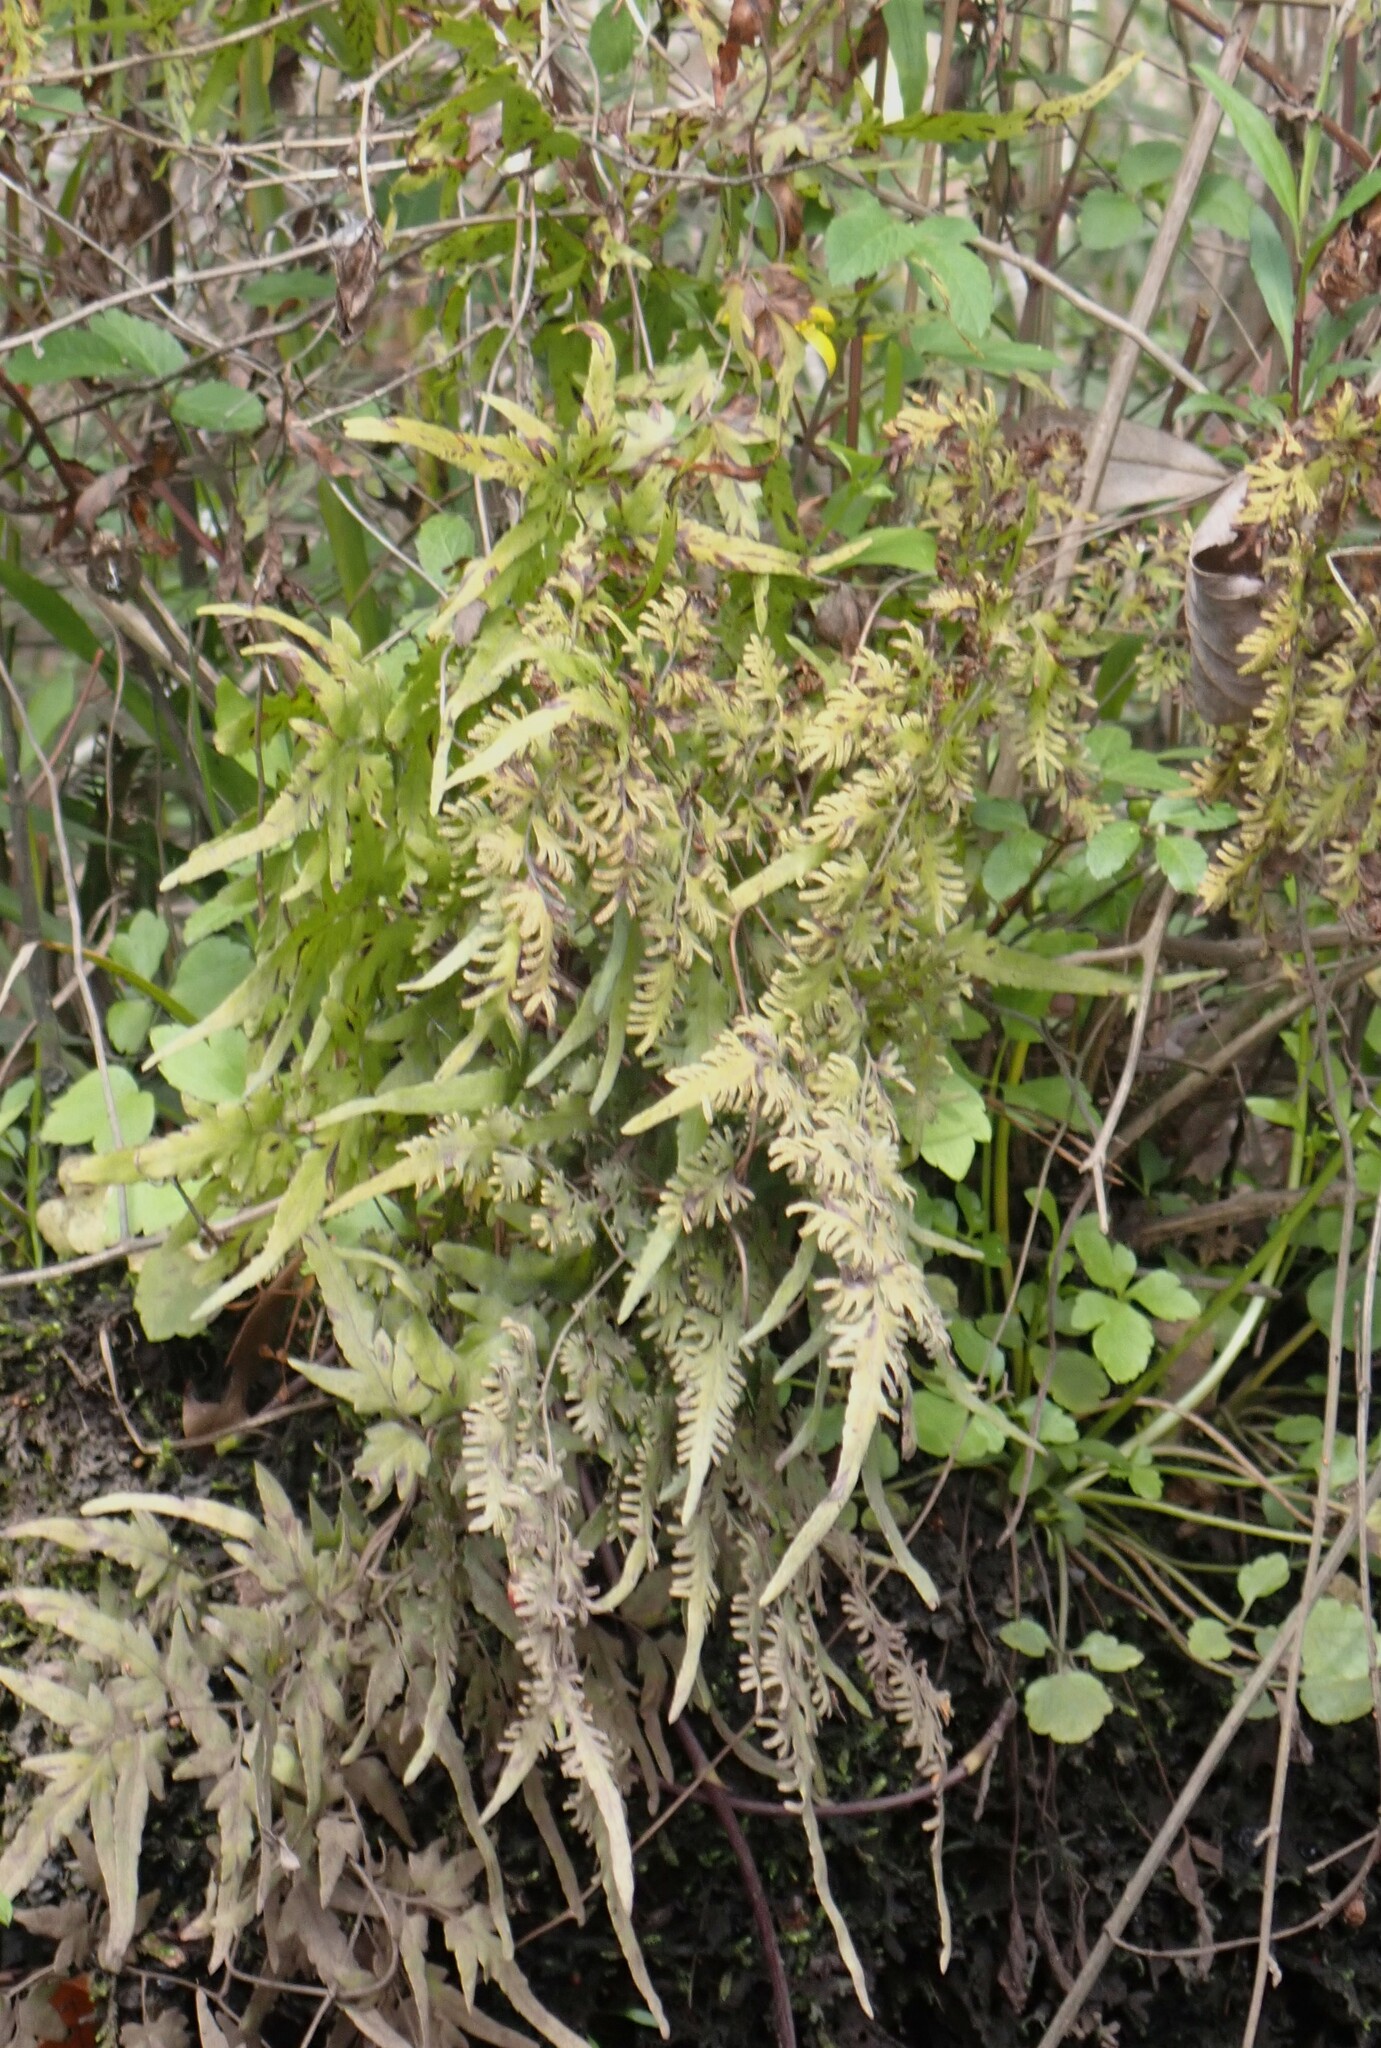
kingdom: Plantae
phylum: Tracheophyta
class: Polypodiopsida
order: Schizaeales
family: Lygodiaceae
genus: Lygodium
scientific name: Lygodium japonicum
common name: Japanese climbing fern
